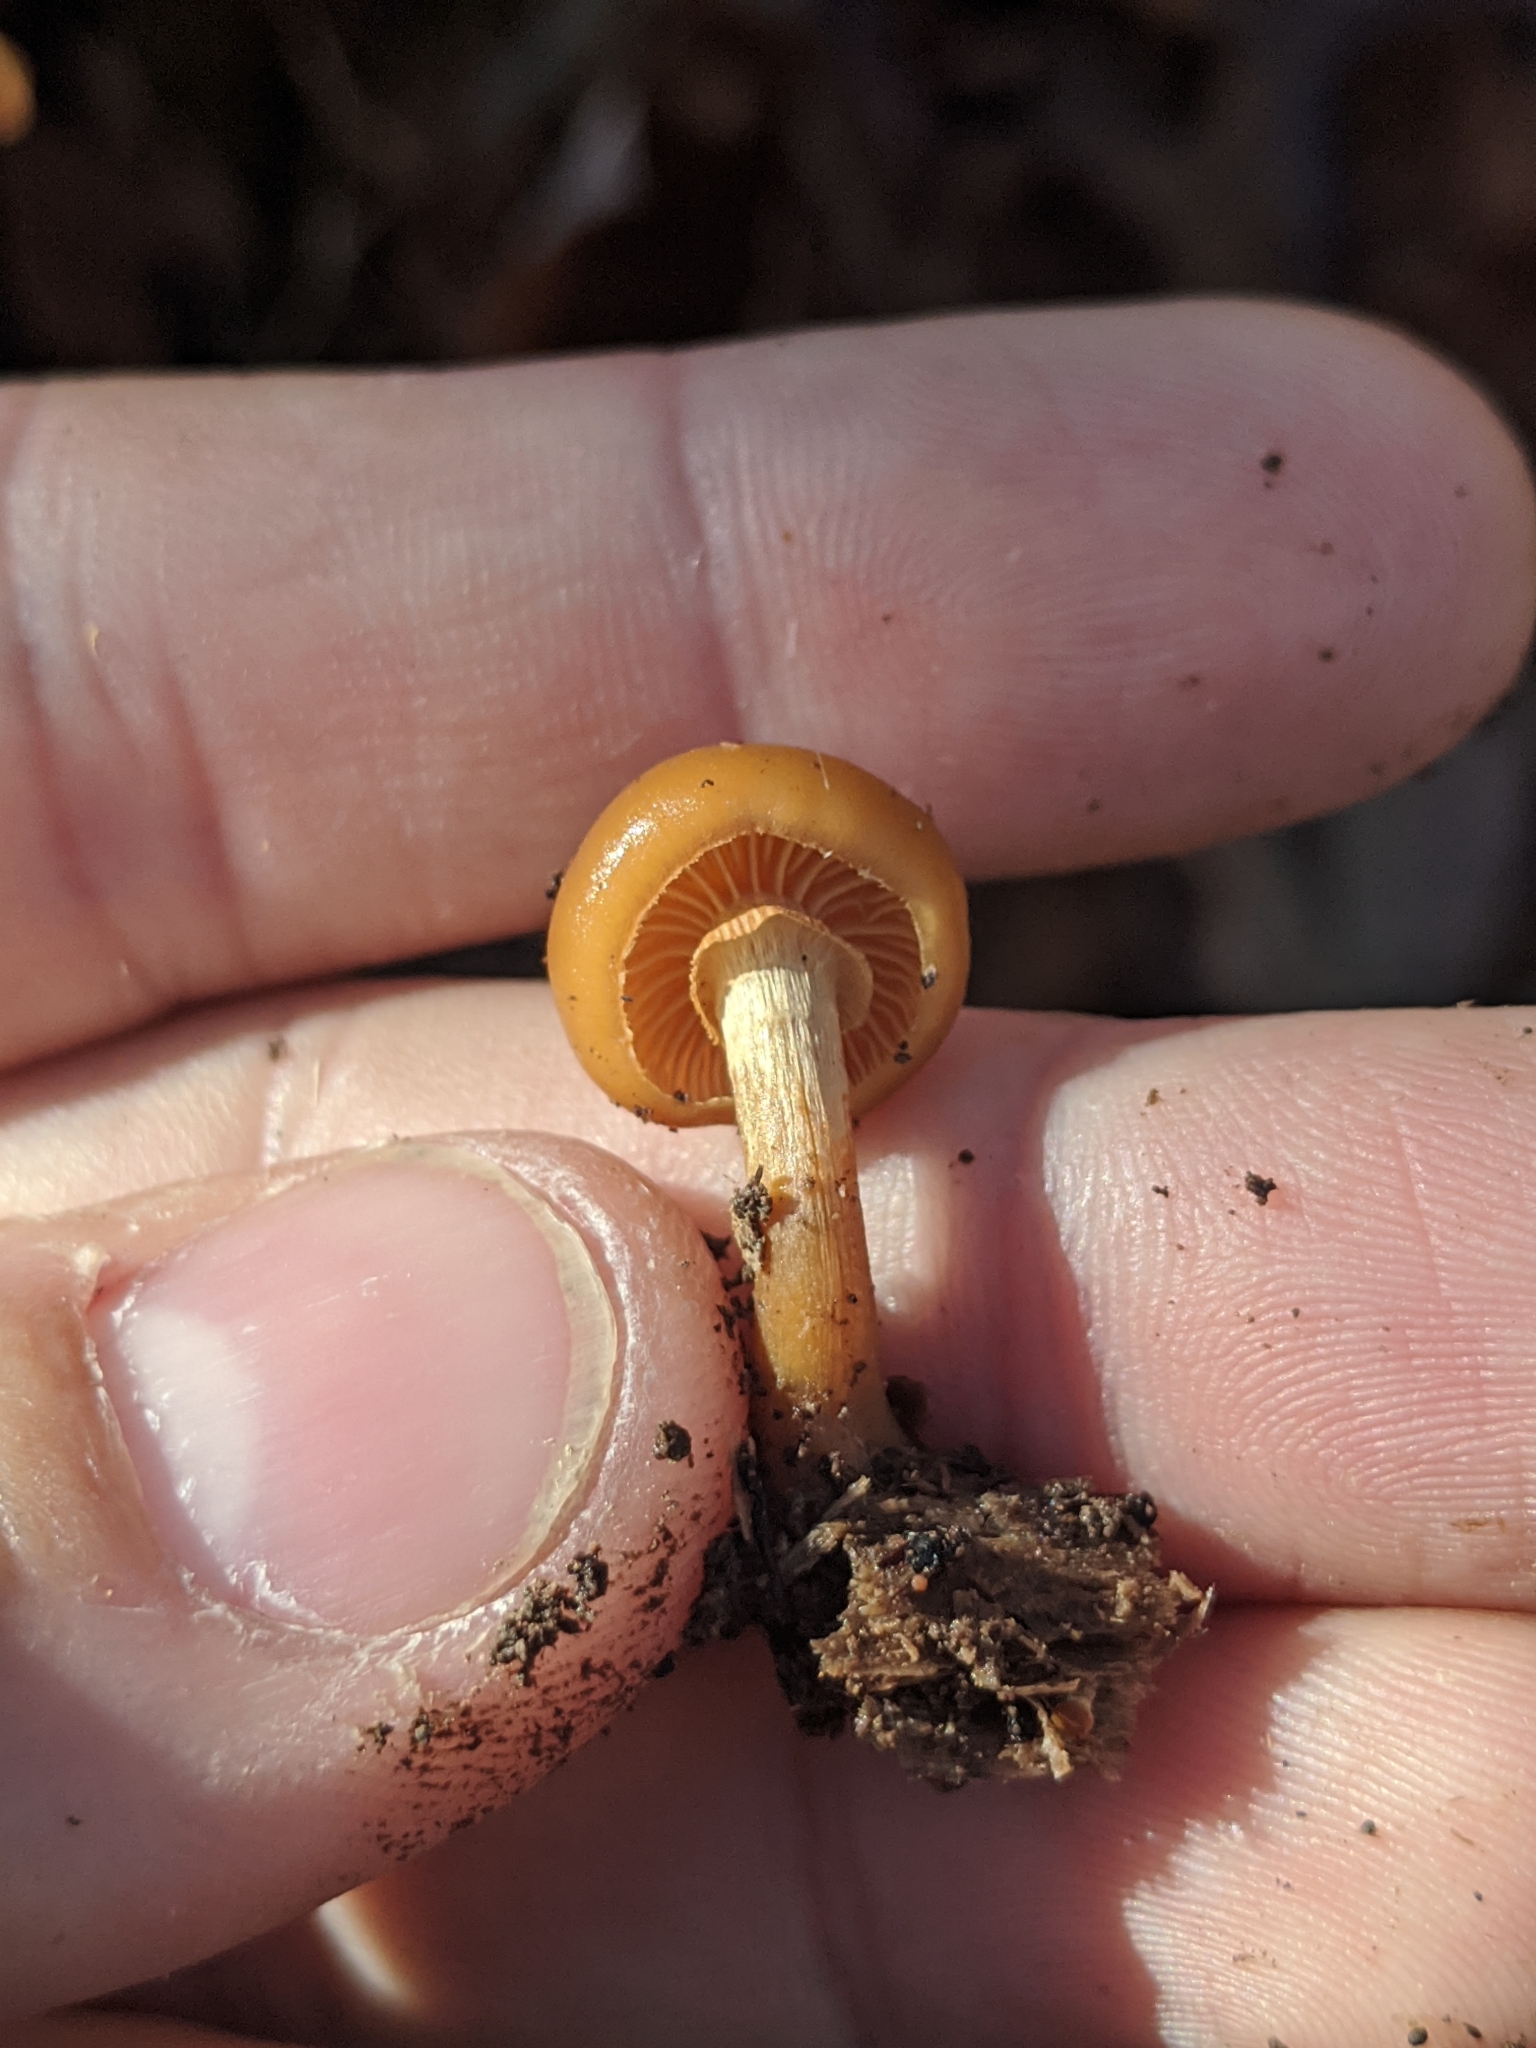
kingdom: Fungi
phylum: Basidiomycota
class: Agaricomycetes
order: Agaricales
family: Hymenogastraceae
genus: Galerina
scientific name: Galerina marginata
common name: Funeral bell
